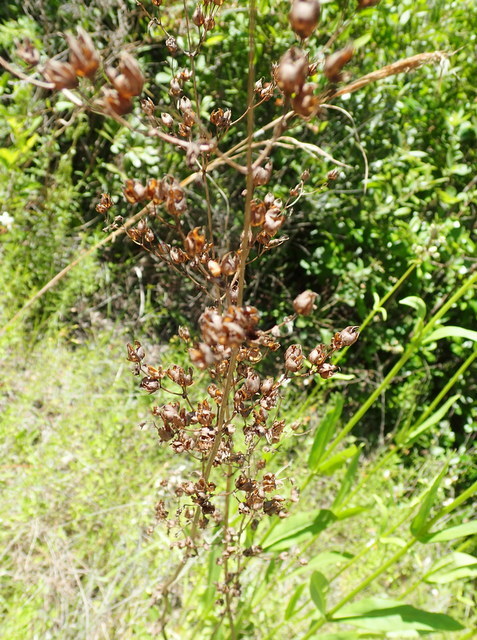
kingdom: Plantae
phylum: Tracheophyta
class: Magnoliopsida
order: Lamiales
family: Plantaginaceae
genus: Penstemon
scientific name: Penstemon multiflorus
